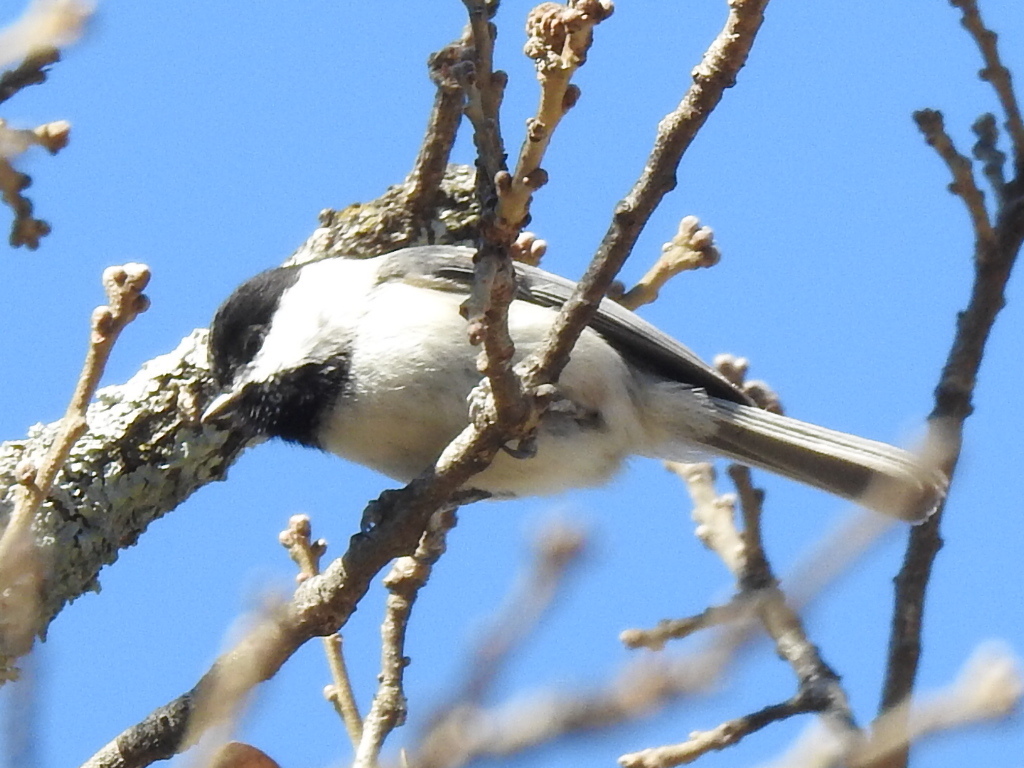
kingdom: Animalia
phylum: Chordata
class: Aves
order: Passeriformes
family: Paridae
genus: Poecile
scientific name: Poecile carolinensis
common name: Carolina chickadee
